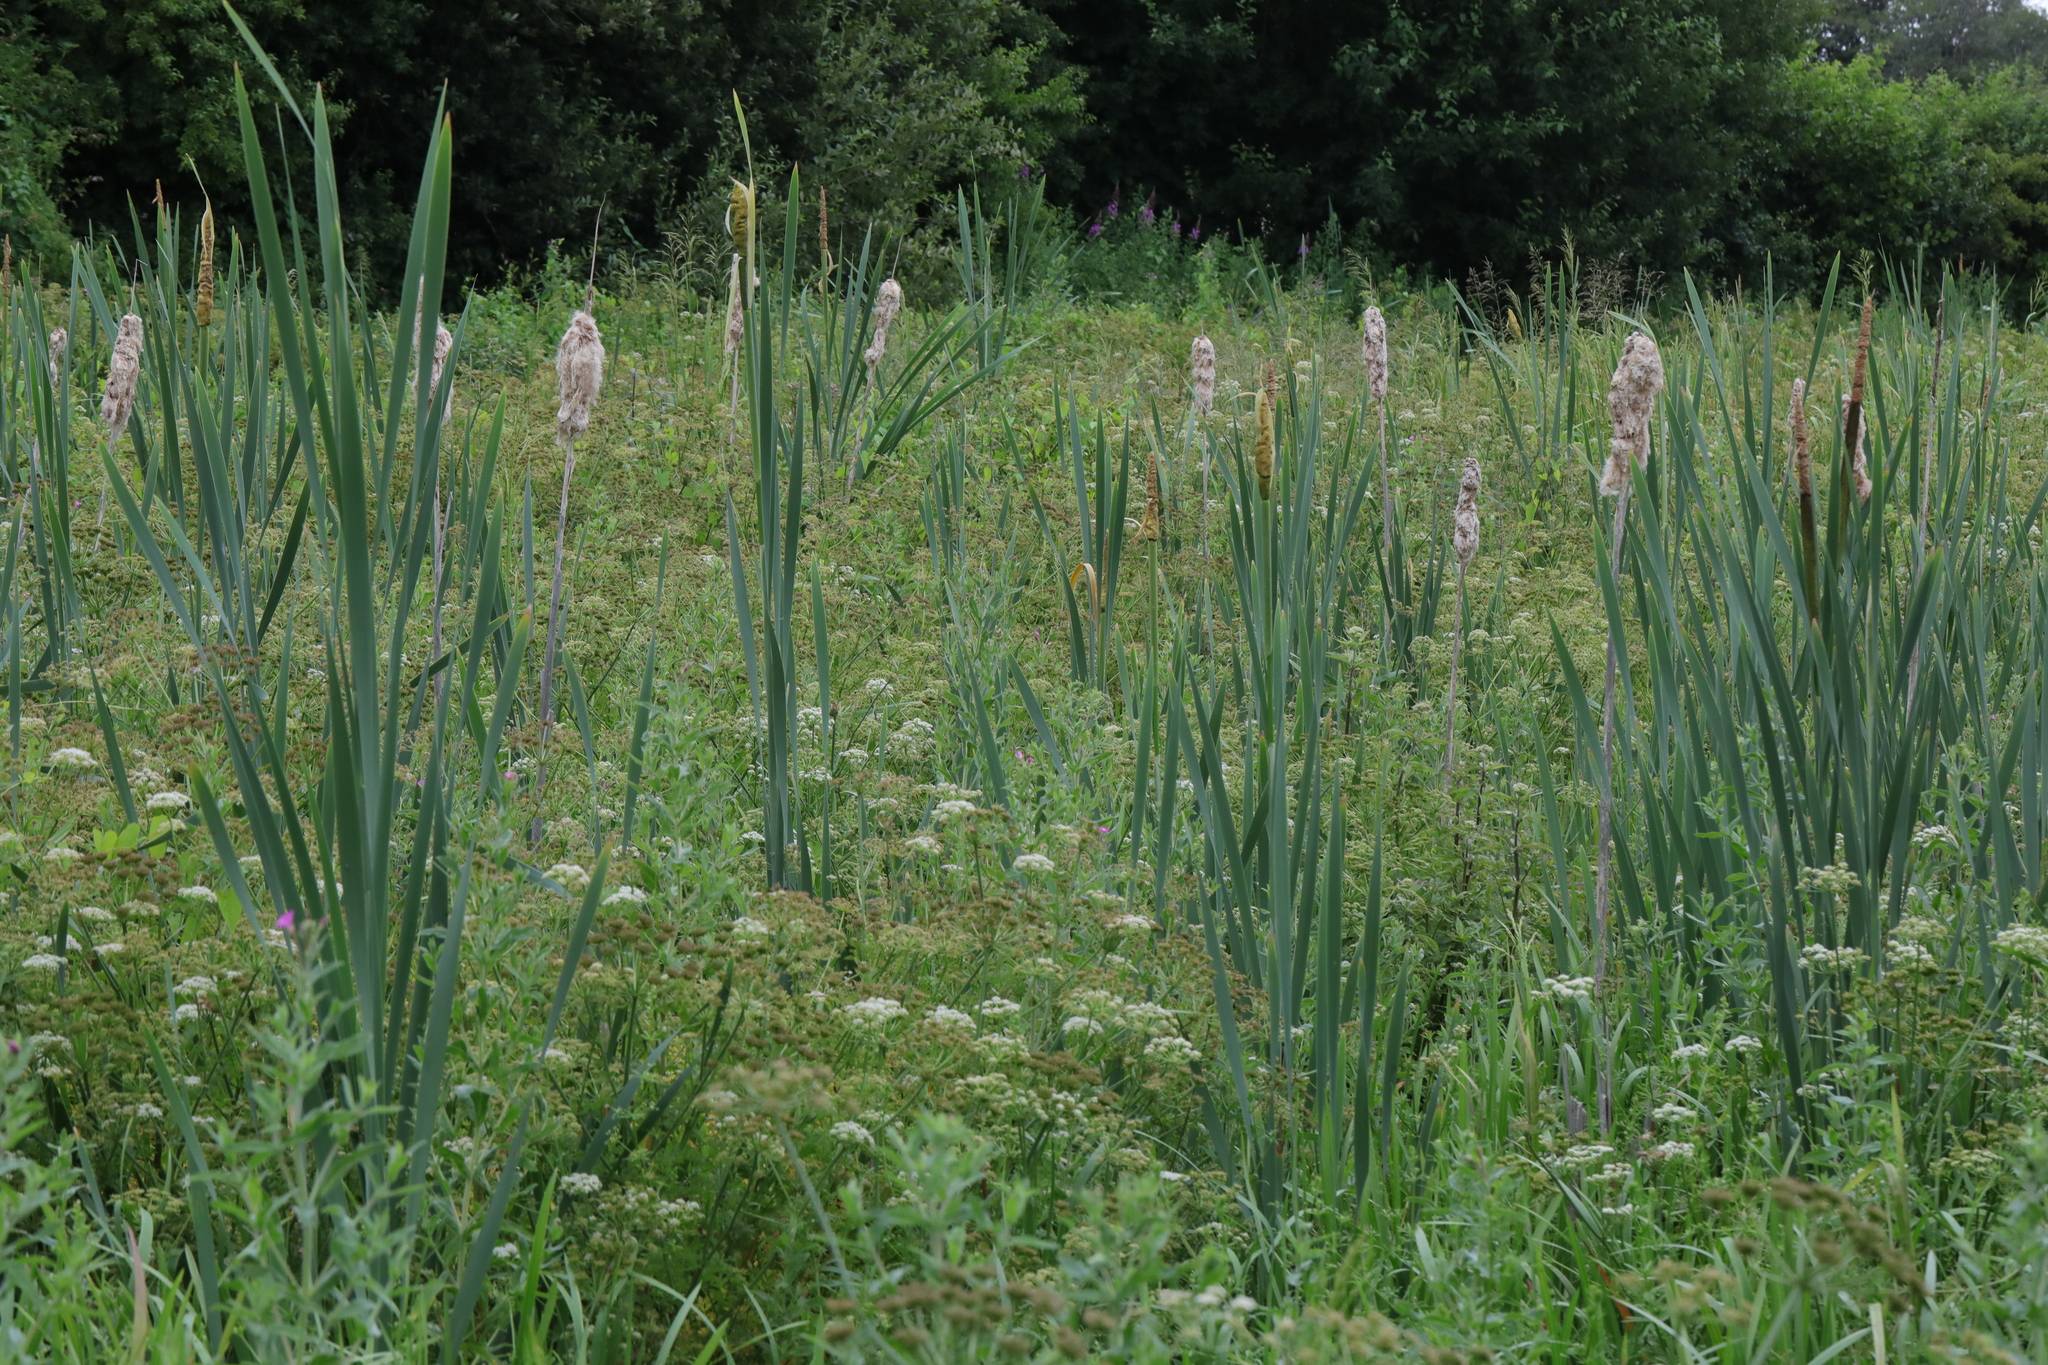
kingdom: Plantae
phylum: Tracheophyta
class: Liliopsida
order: Poales
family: Typhaceae
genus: Typha
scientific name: Typha latifolia
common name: Broadleaf cattail
